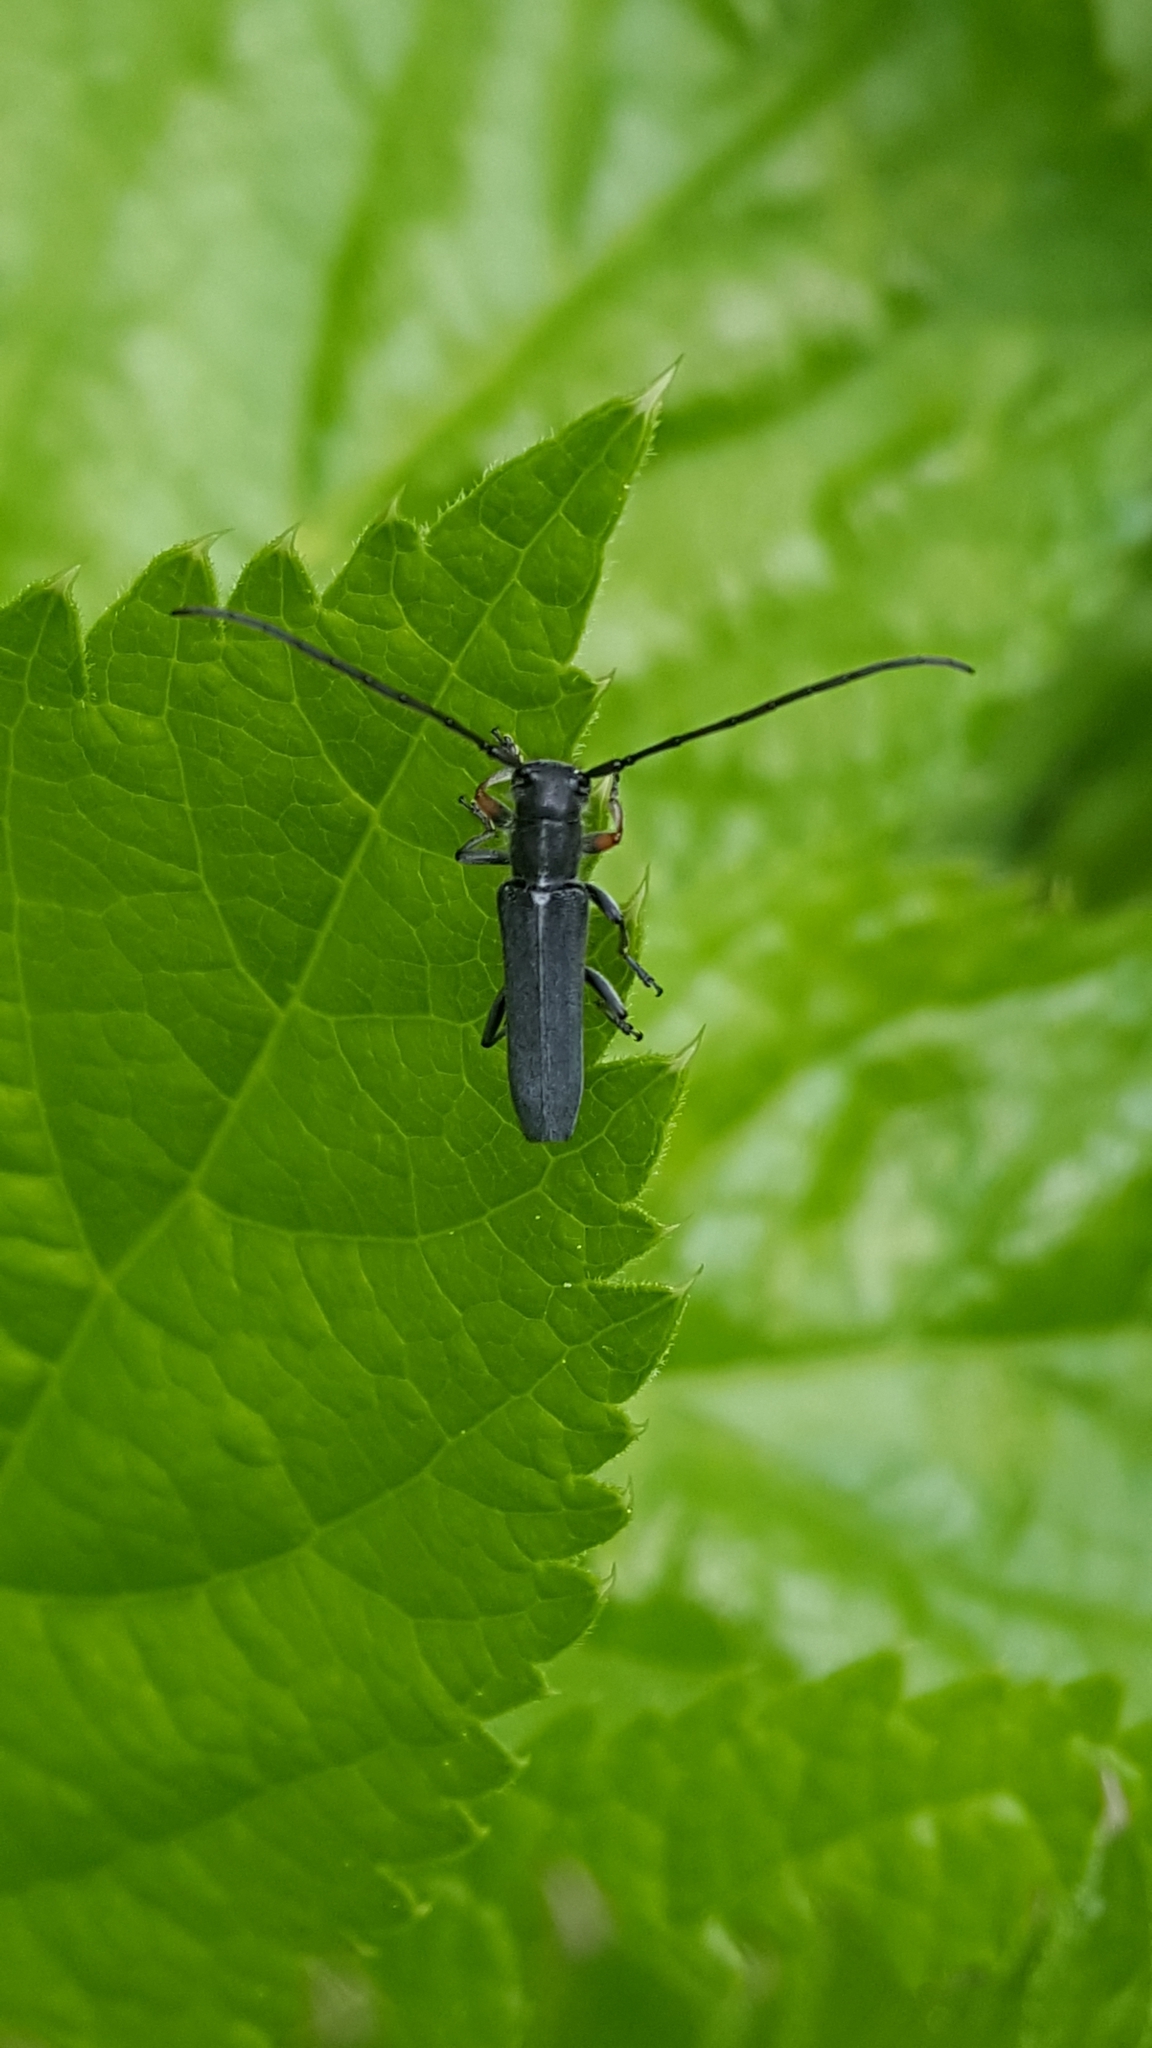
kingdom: Animalia
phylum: Arthropoda
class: Insecta
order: Coleoptera
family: Cerambycidae
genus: Phytoecia
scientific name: Phytoecia cylindrica
